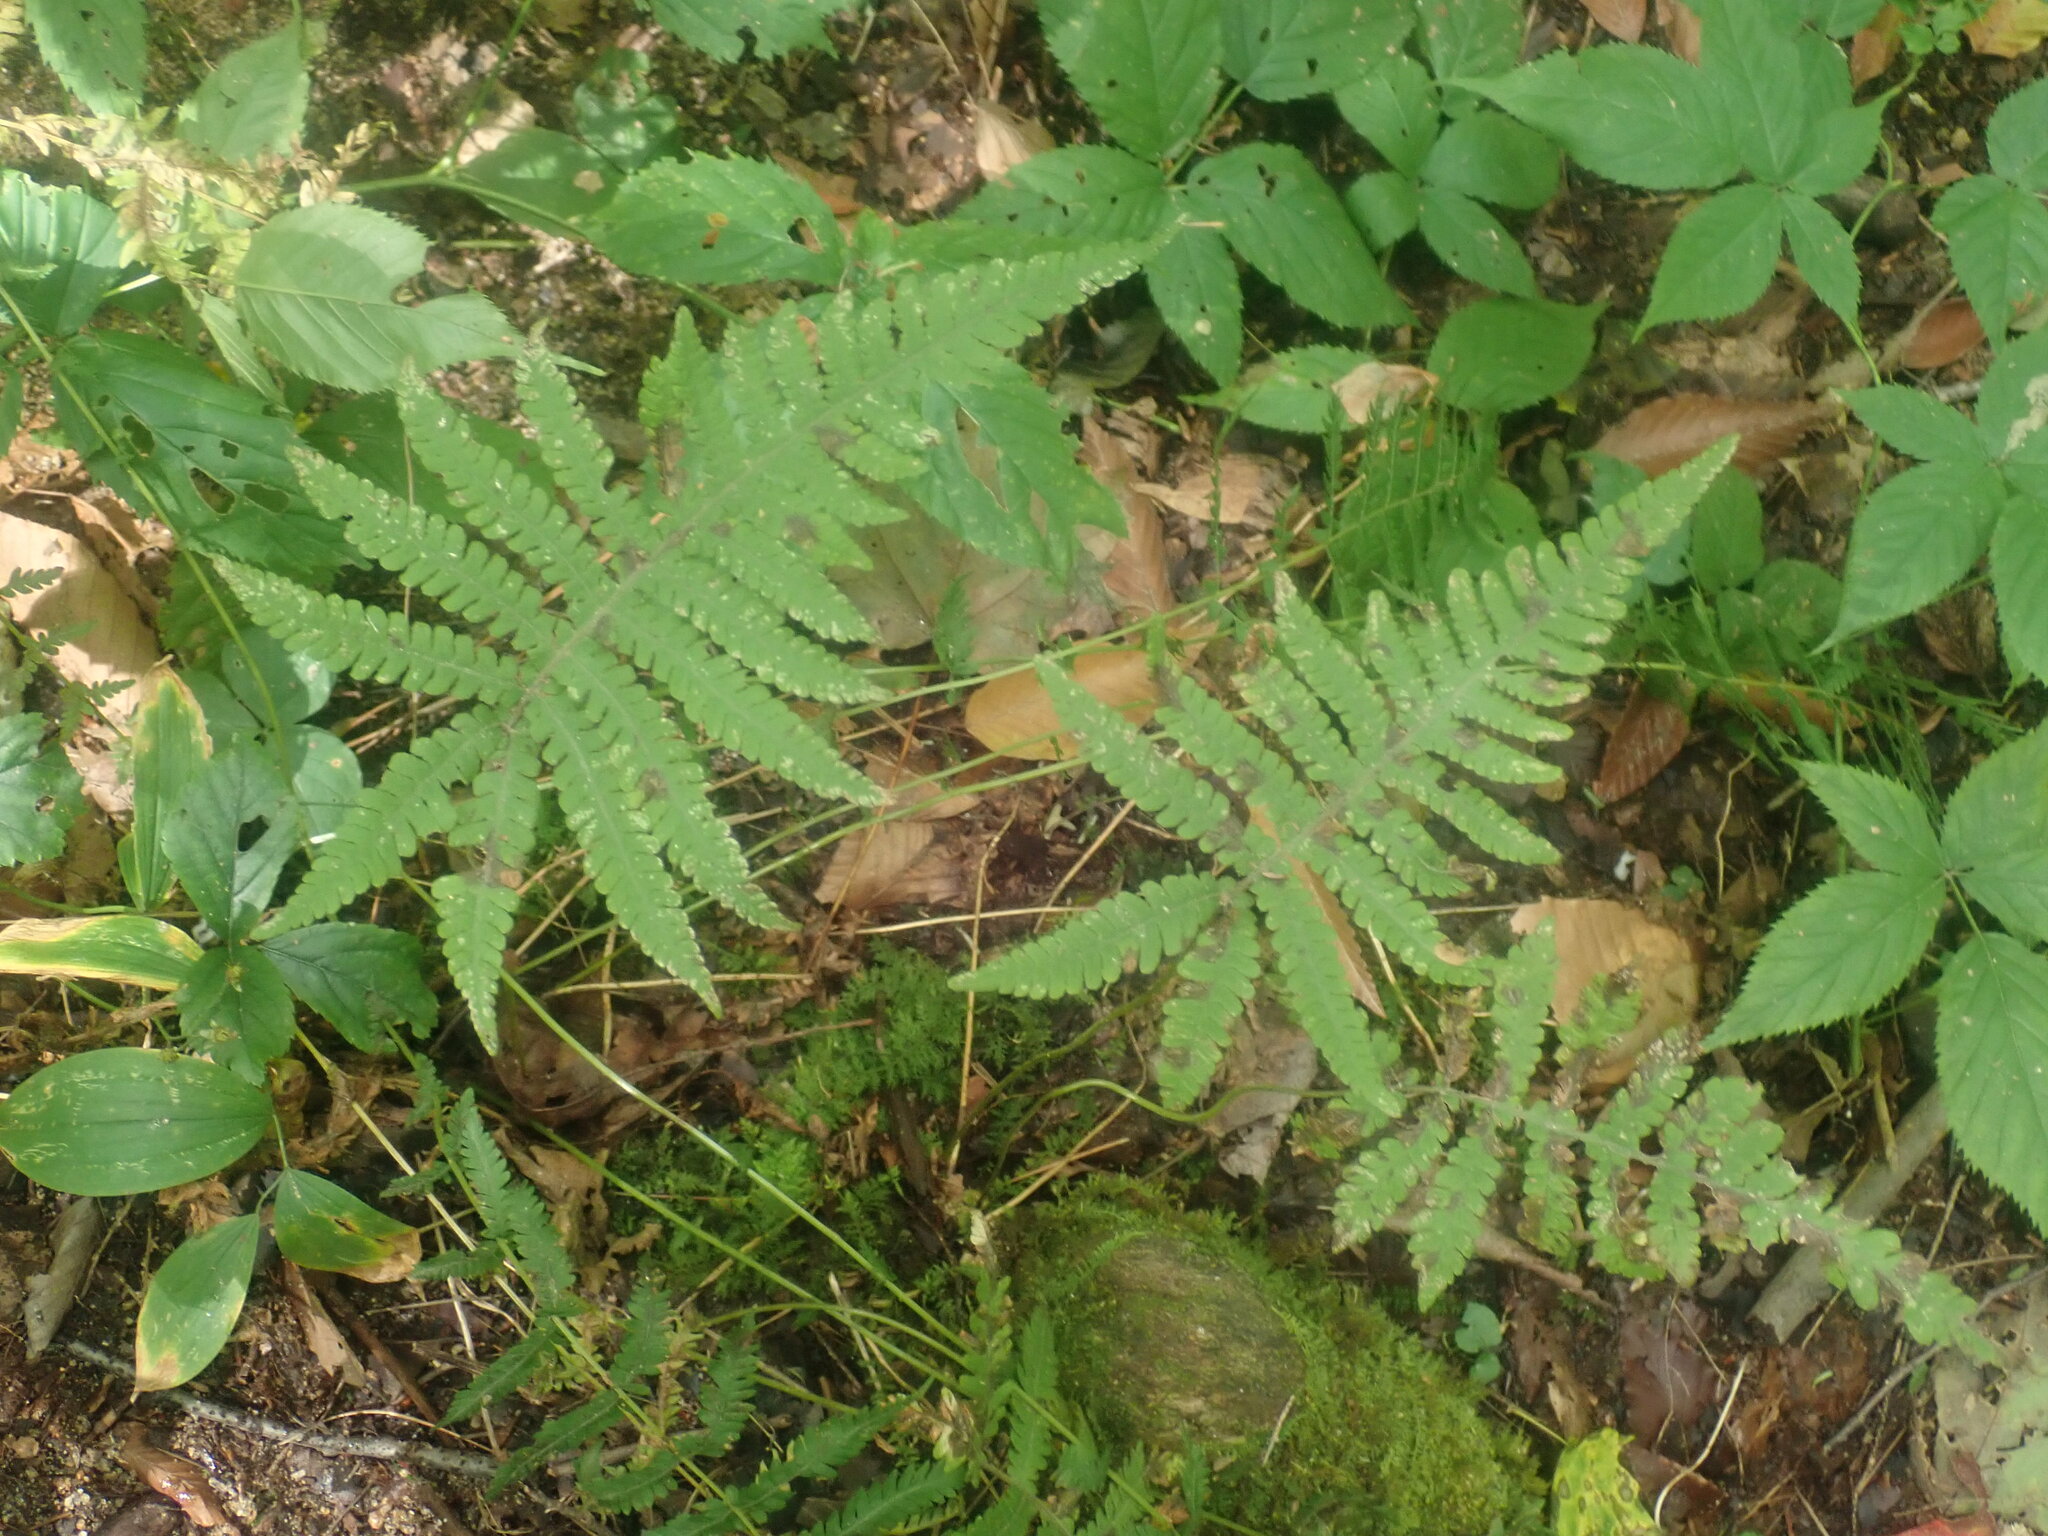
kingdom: Plantae
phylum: Tracheophyta
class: Polypodiopsida
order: Polypodiales
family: Thelypteridaceae
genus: Phegopteris
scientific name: Phegopteris connectilis
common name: Beech fern
